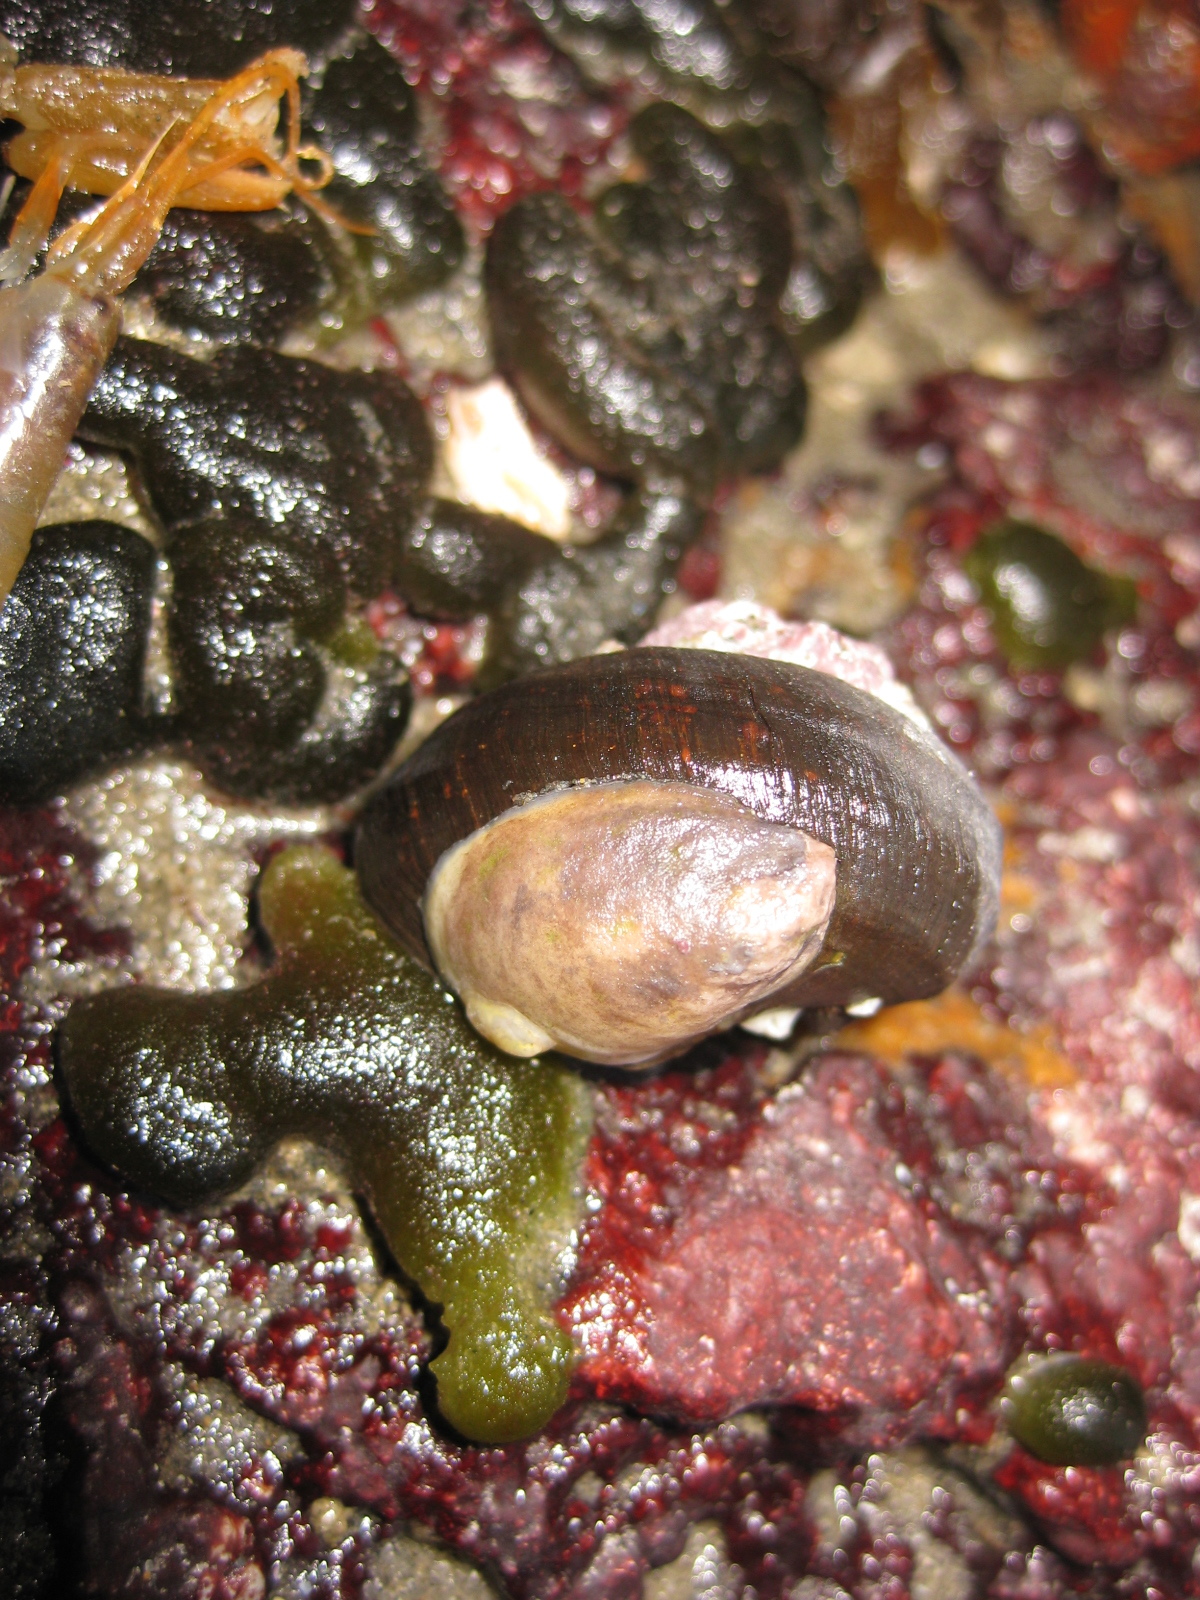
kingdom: Animalia
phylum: Mollusca
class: Gastropoda
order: Littorinimorpha
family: Calyptraeidae
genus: Maoricrypta
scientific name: Maoricrypta monoxyla
